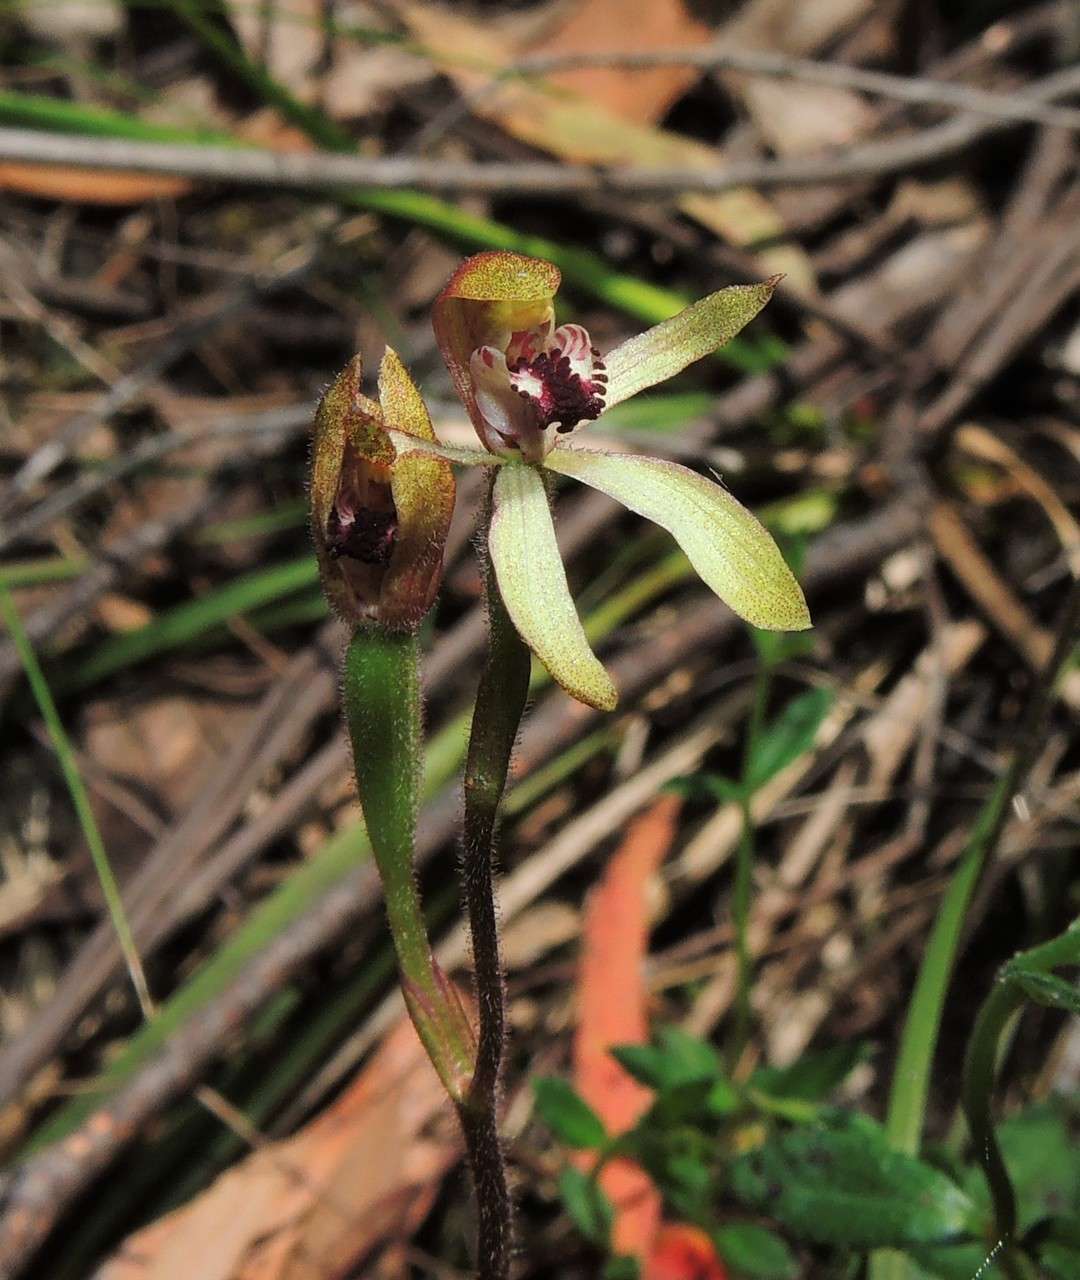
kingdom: Plantae
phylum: Tracheophyta
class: Liliopsida
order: Asparagales
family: Orchidaceae
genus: Caladenia
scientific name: Caladenia transitoria
